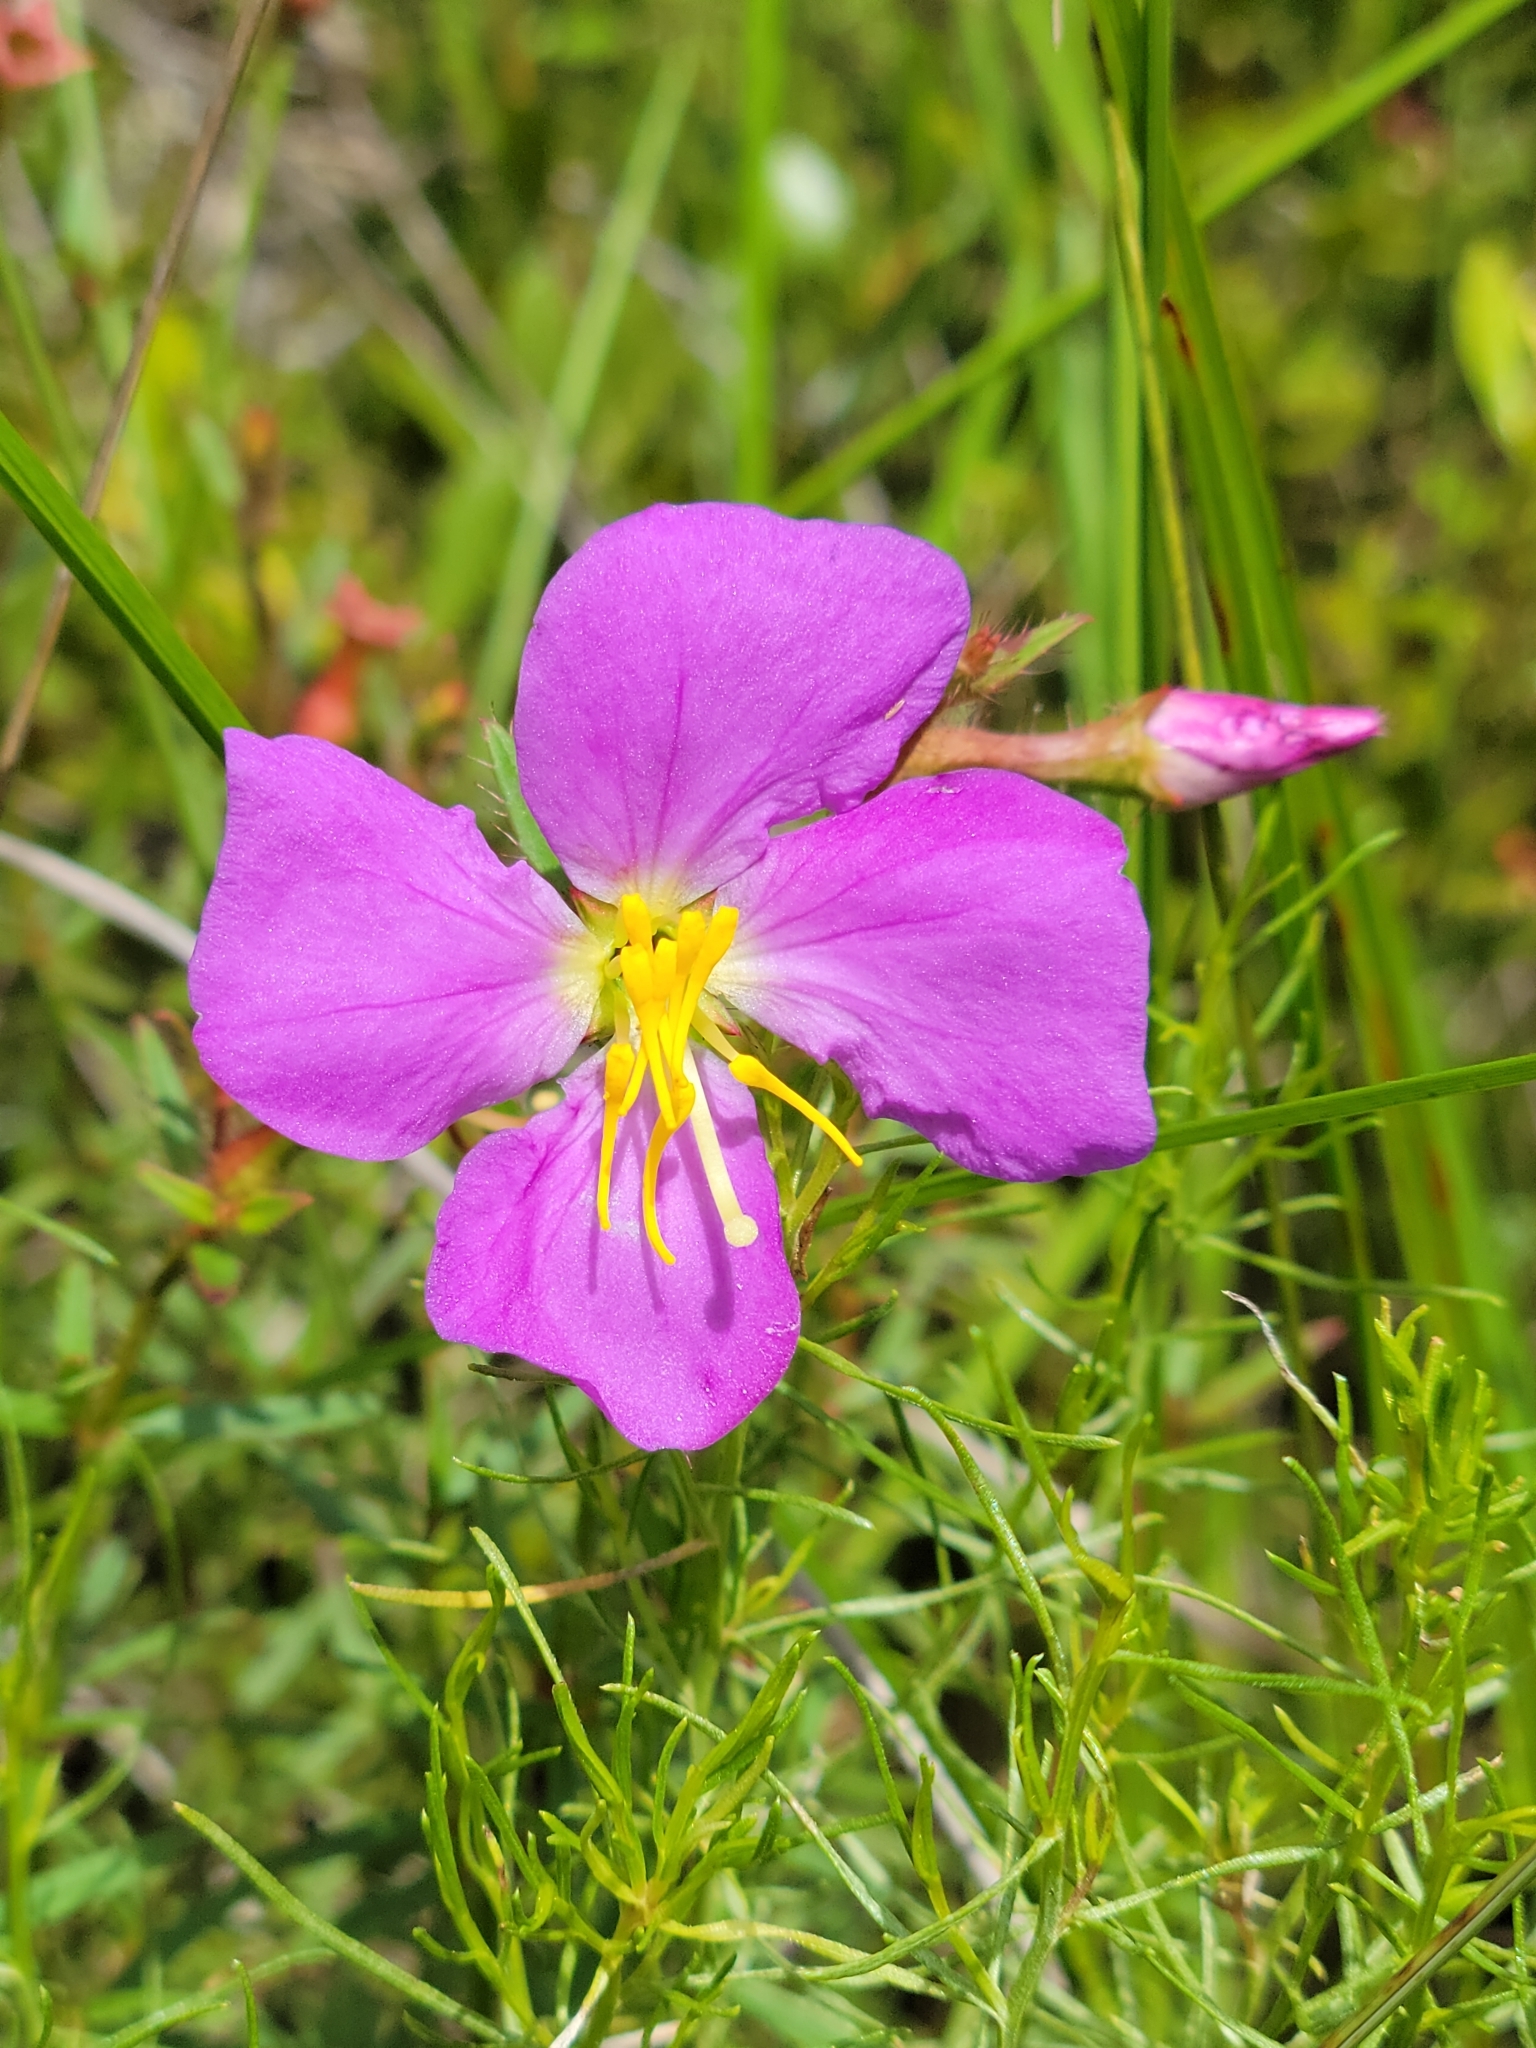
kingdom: Plantae
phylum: Tracheophyta
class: Magnoliopsida
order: Myrtales
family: Melastomataceae
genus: Rhexia
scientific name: Rhexia cubensis
